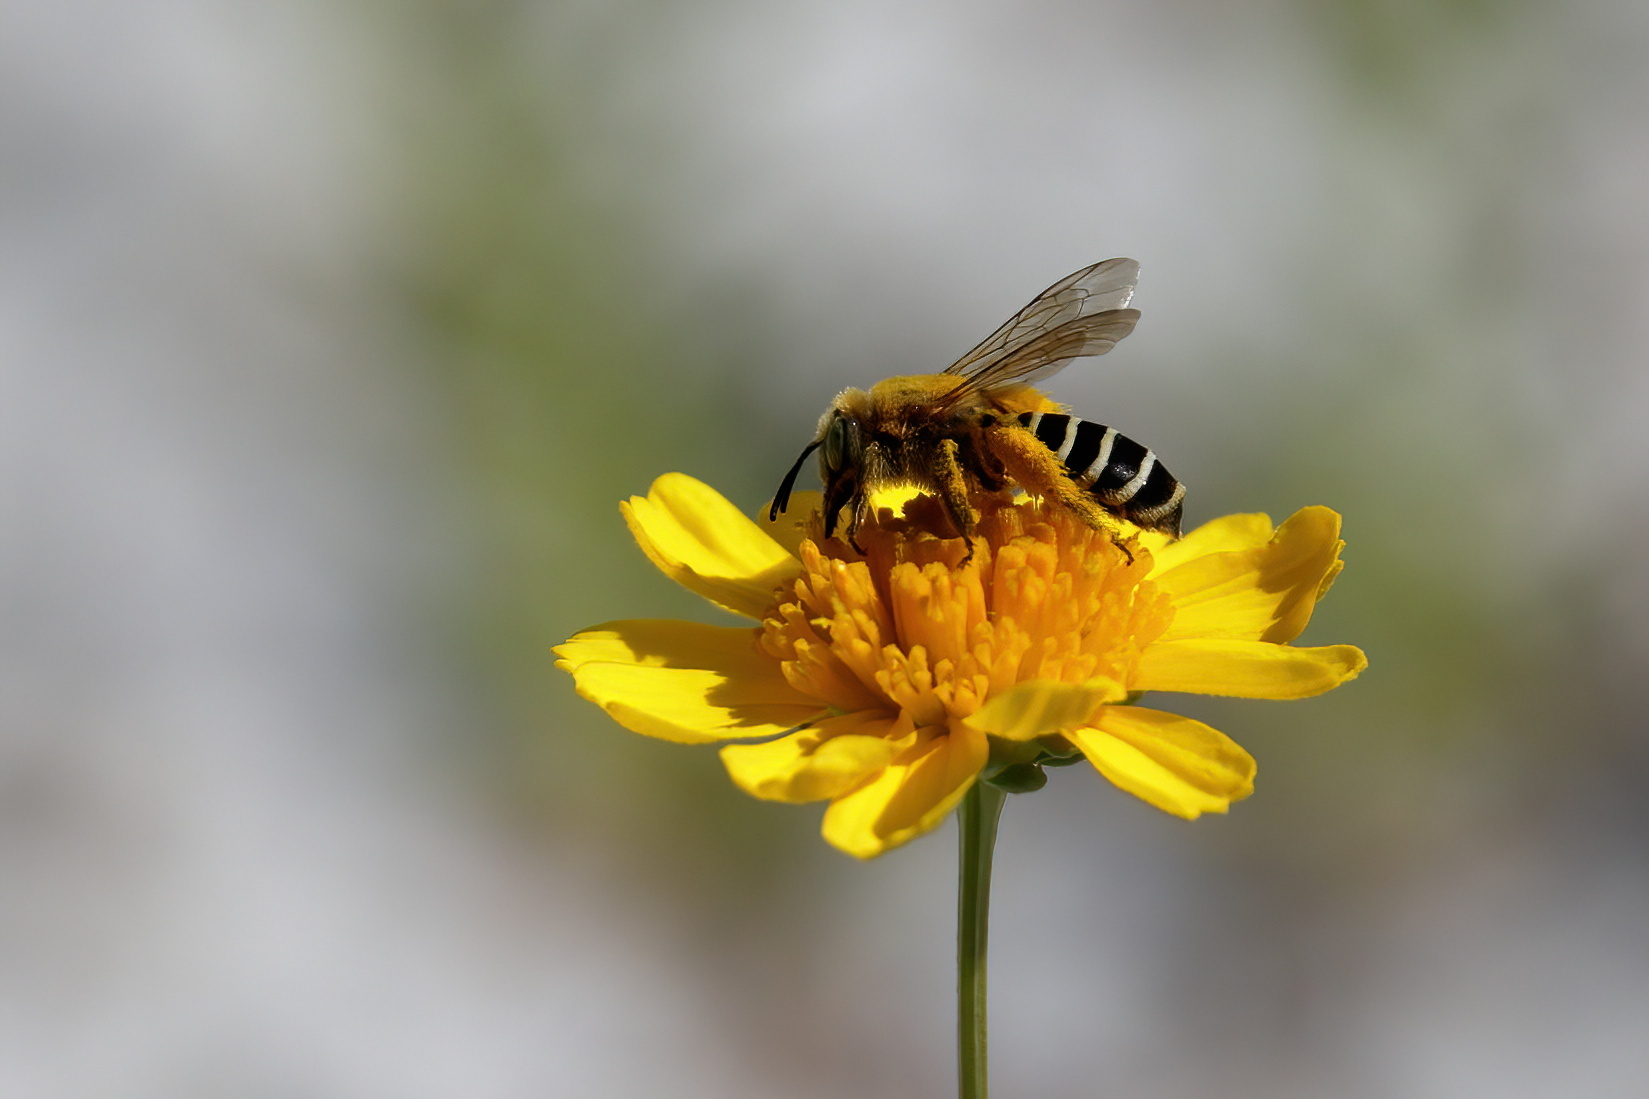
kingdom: Animalia
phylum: Arthropoda
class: Insecta
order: Hymenoptera
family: Melittidae
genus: Hesperapis
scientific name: Hesperapis oraria
